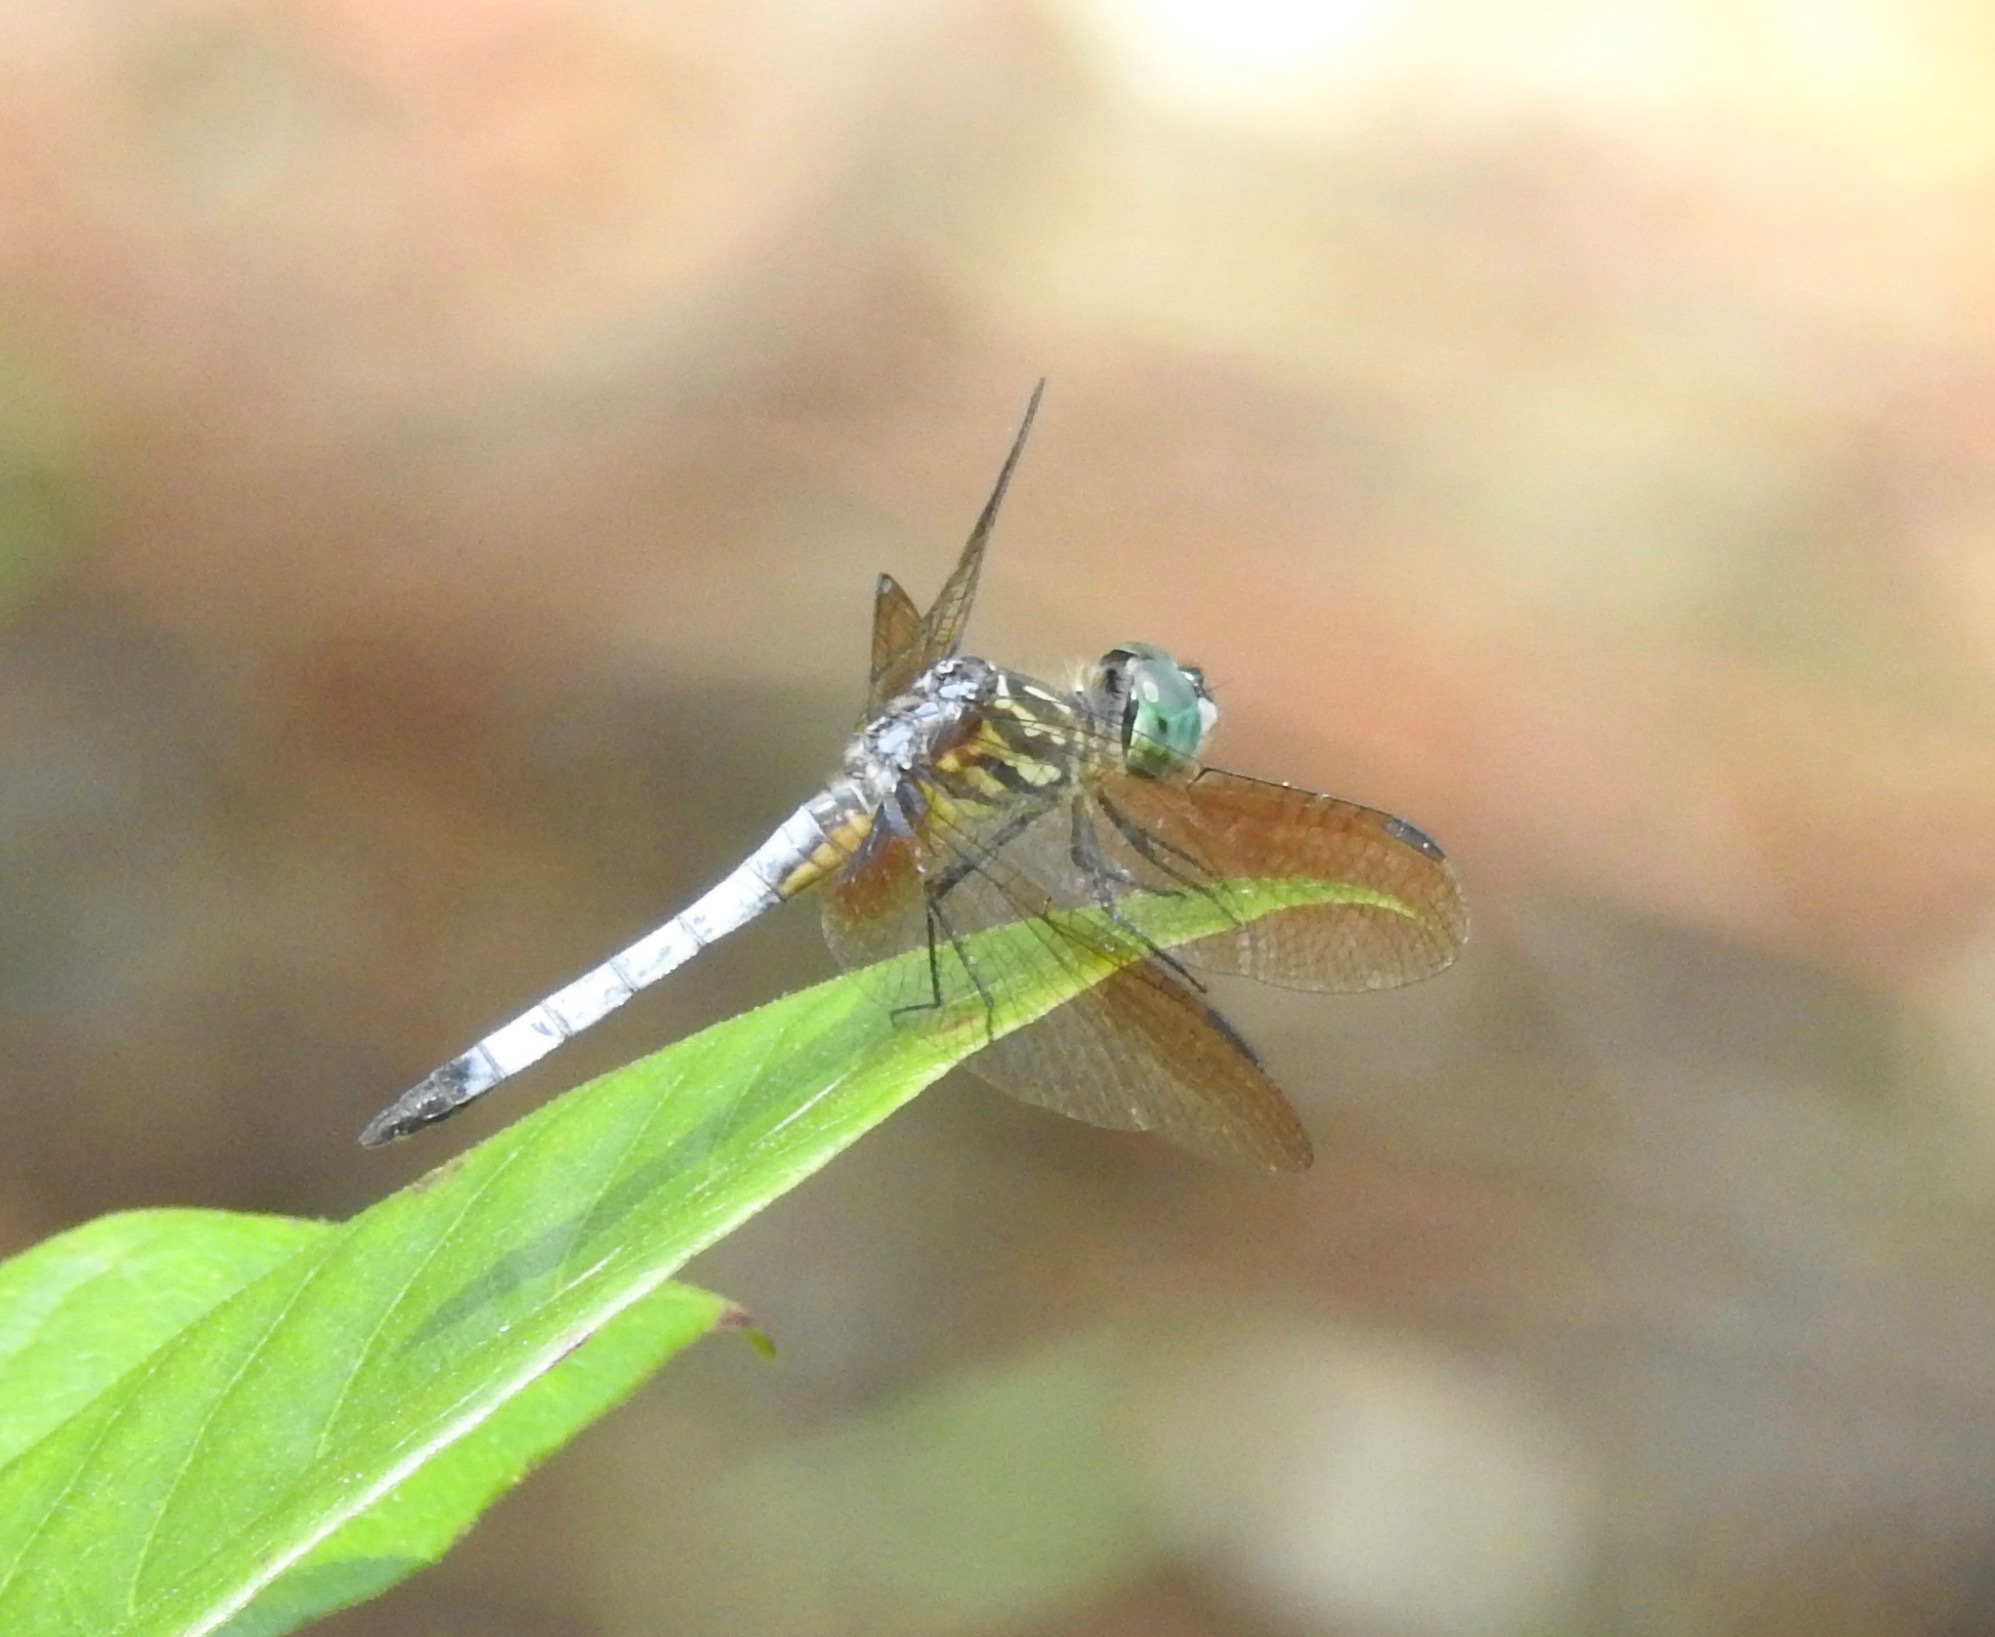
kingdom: Animalia
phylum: Arthropoda
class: Insecta
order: Odonata
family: Libellulidae
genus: Pachydiplax
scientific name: Pachydiplax longipennis
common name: Blue dasher
